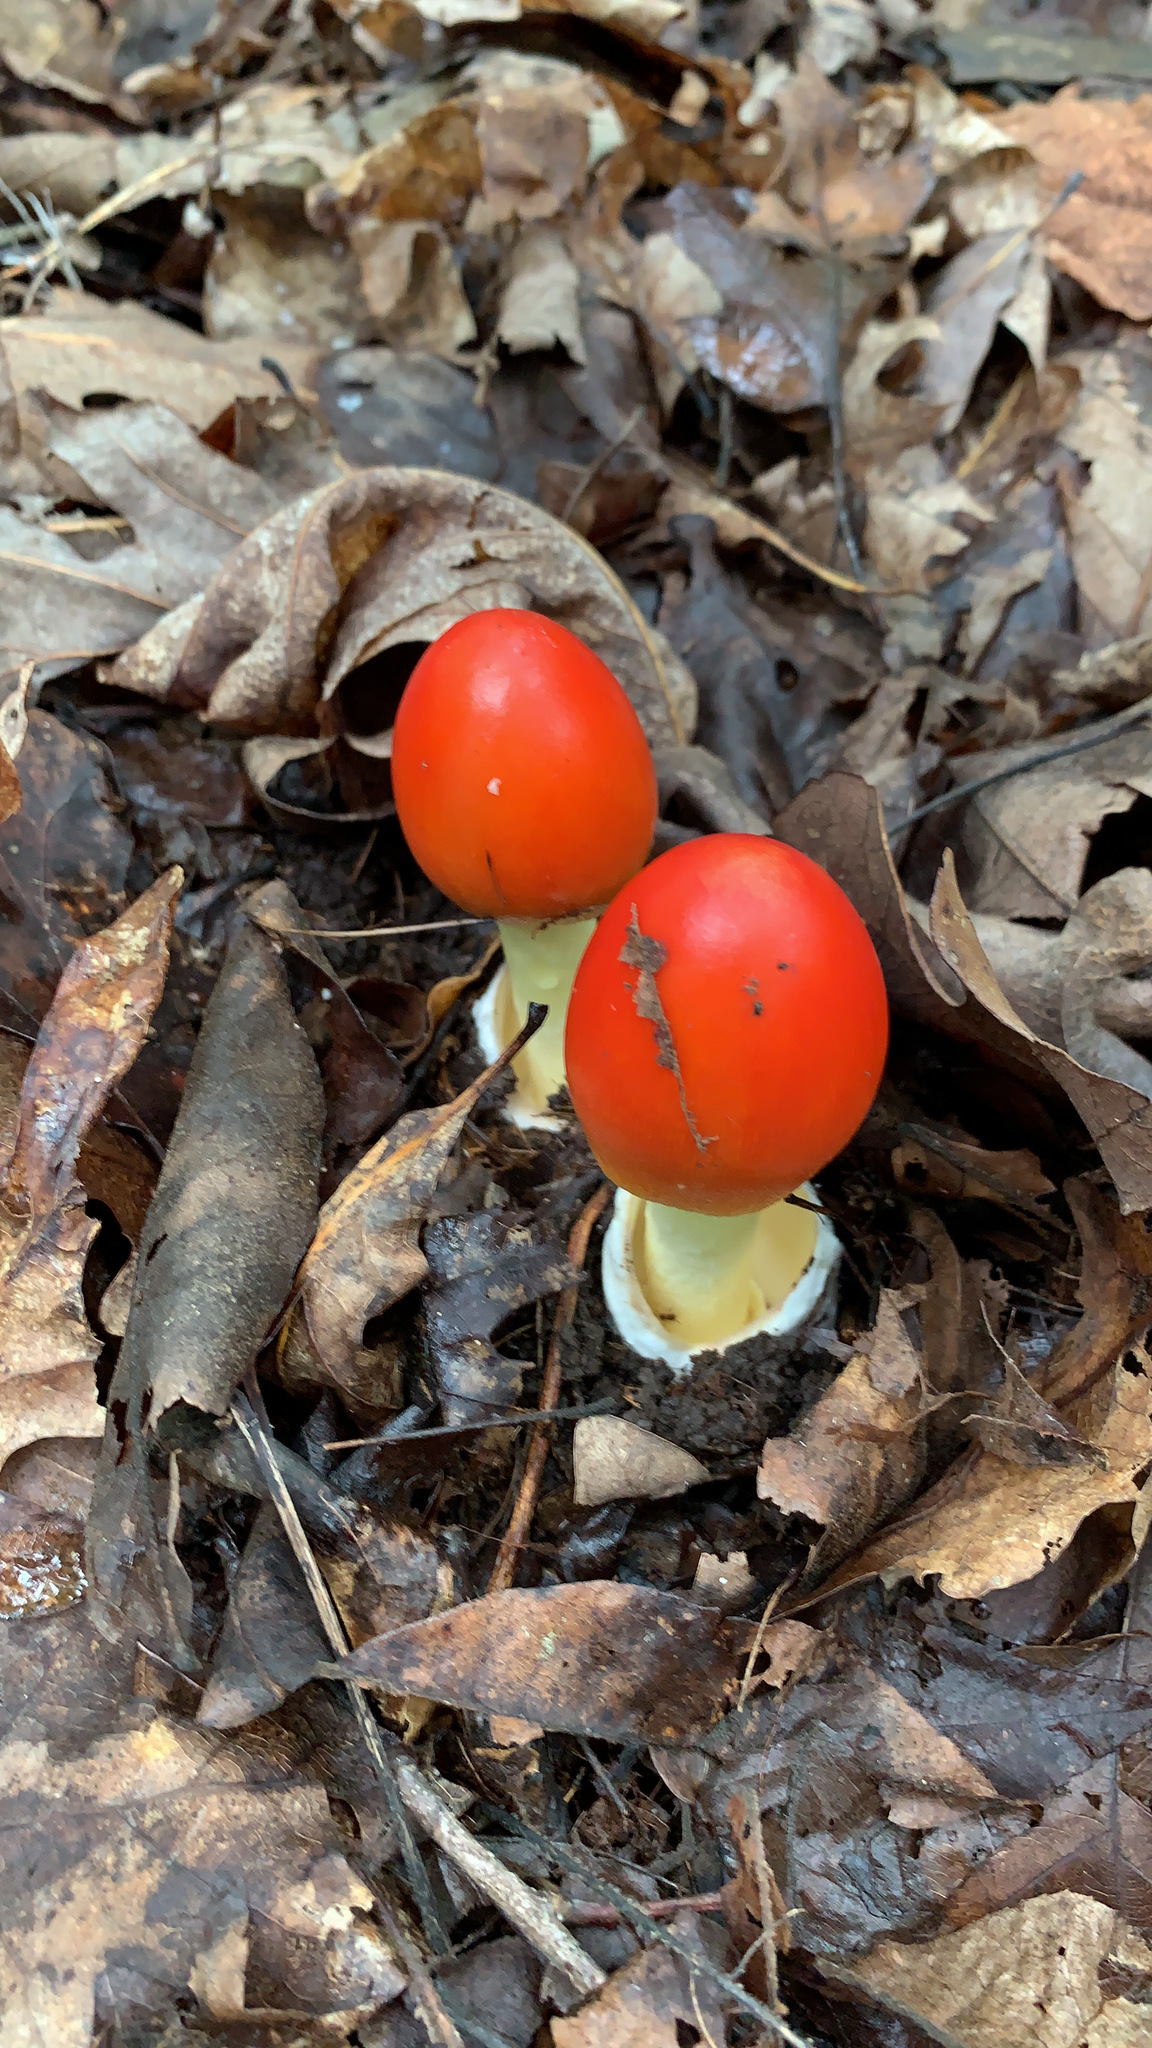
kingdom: Fungi
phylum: Basidiomycota
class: Agaricomycetes
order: Agaricales
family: Amanitaceae
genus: Amanita
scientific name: Amanita jacksonii
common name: Jackson's slender caesar
